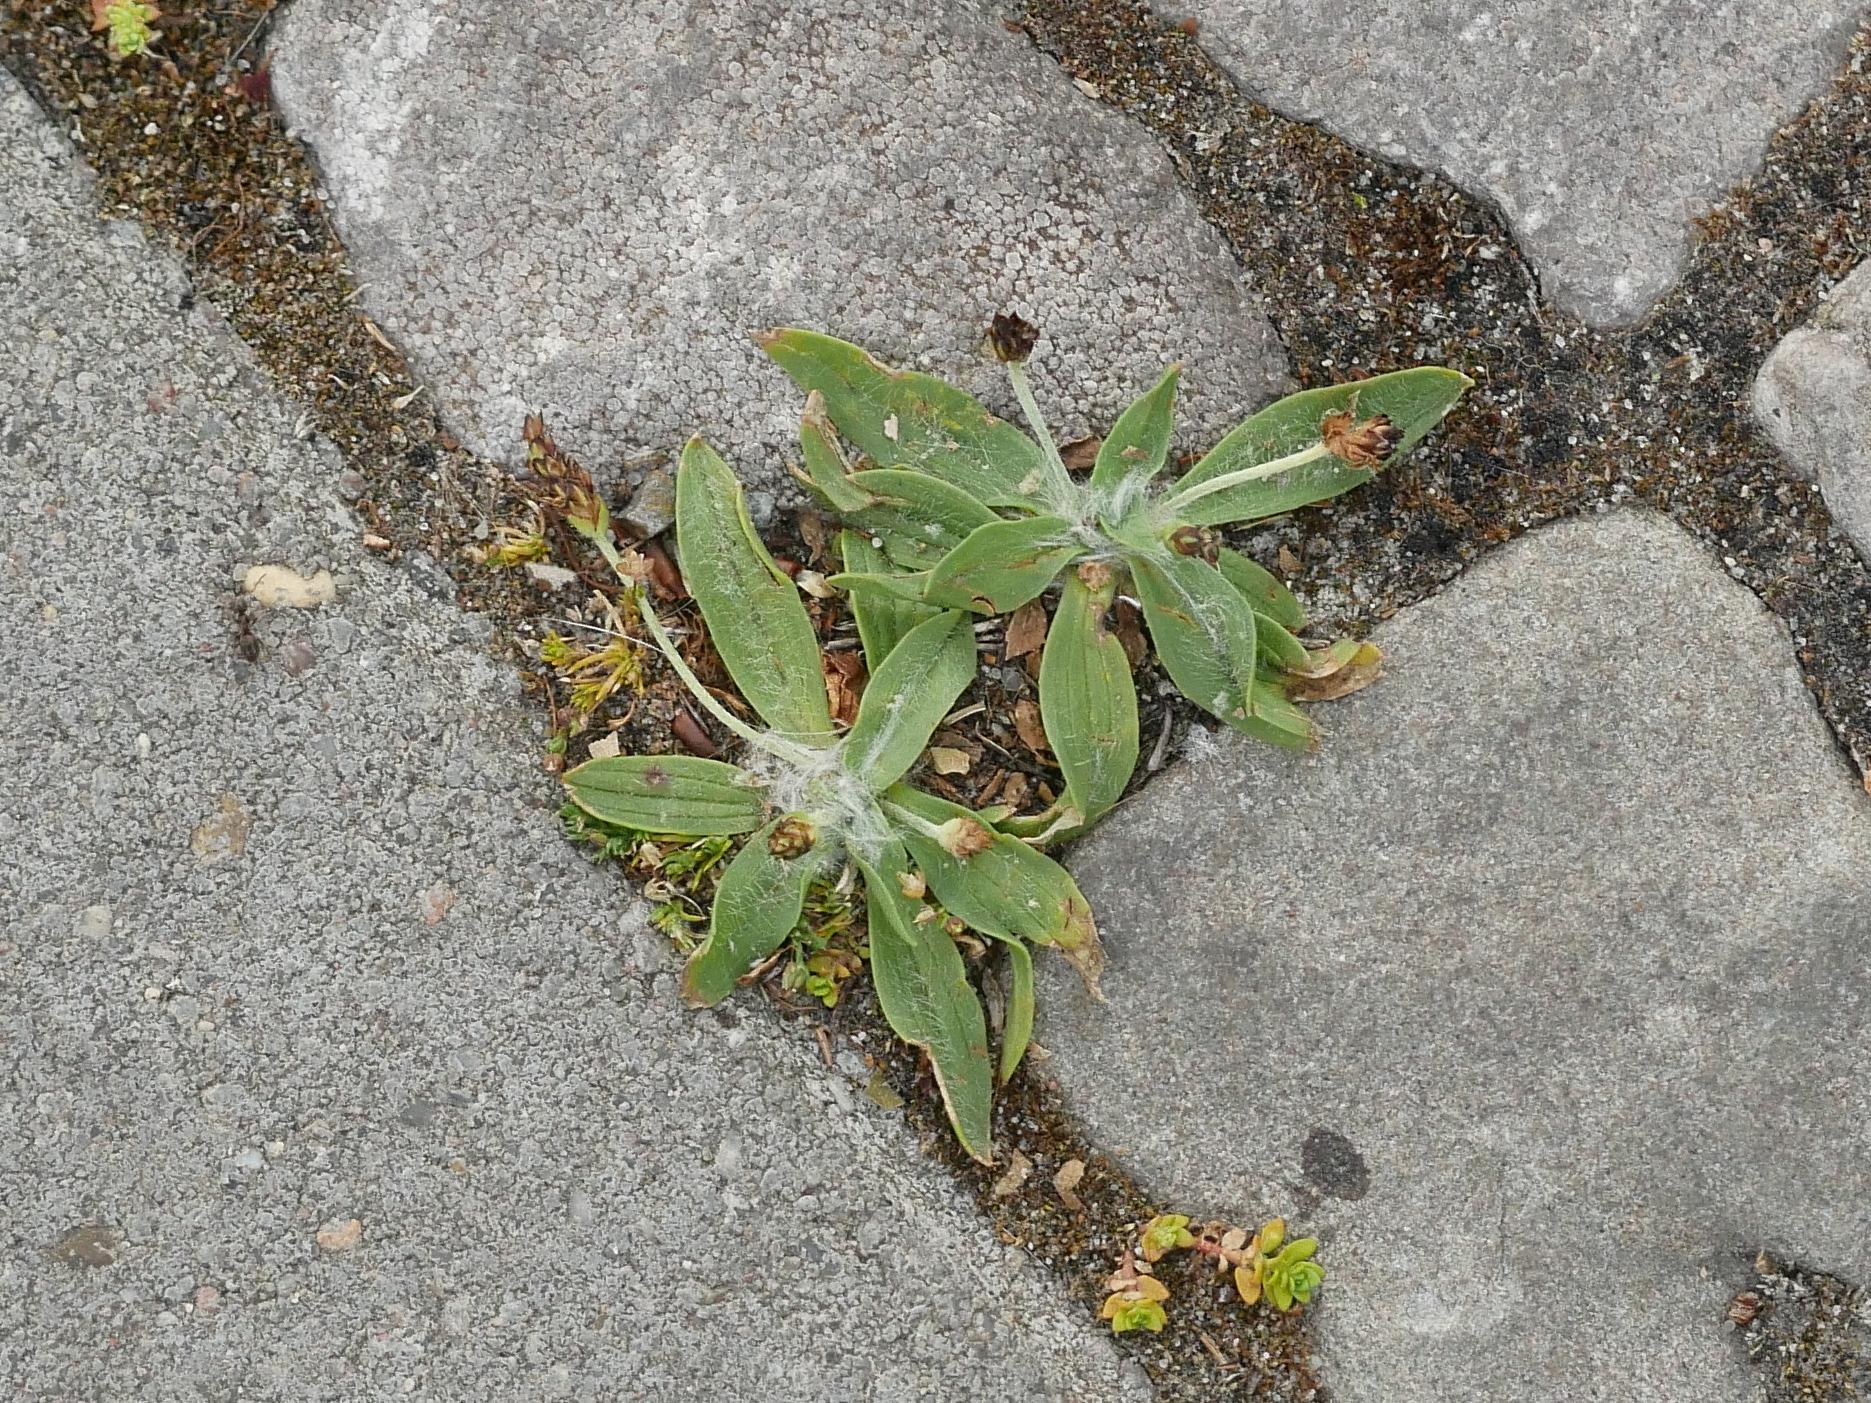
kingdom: Plantae
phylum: Tracheophyta
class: Magnoliopsida
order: Lamiales
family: Plantaginaceae
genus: Plantago
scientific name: Plantago lanceolata
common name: Ribwort plantain
